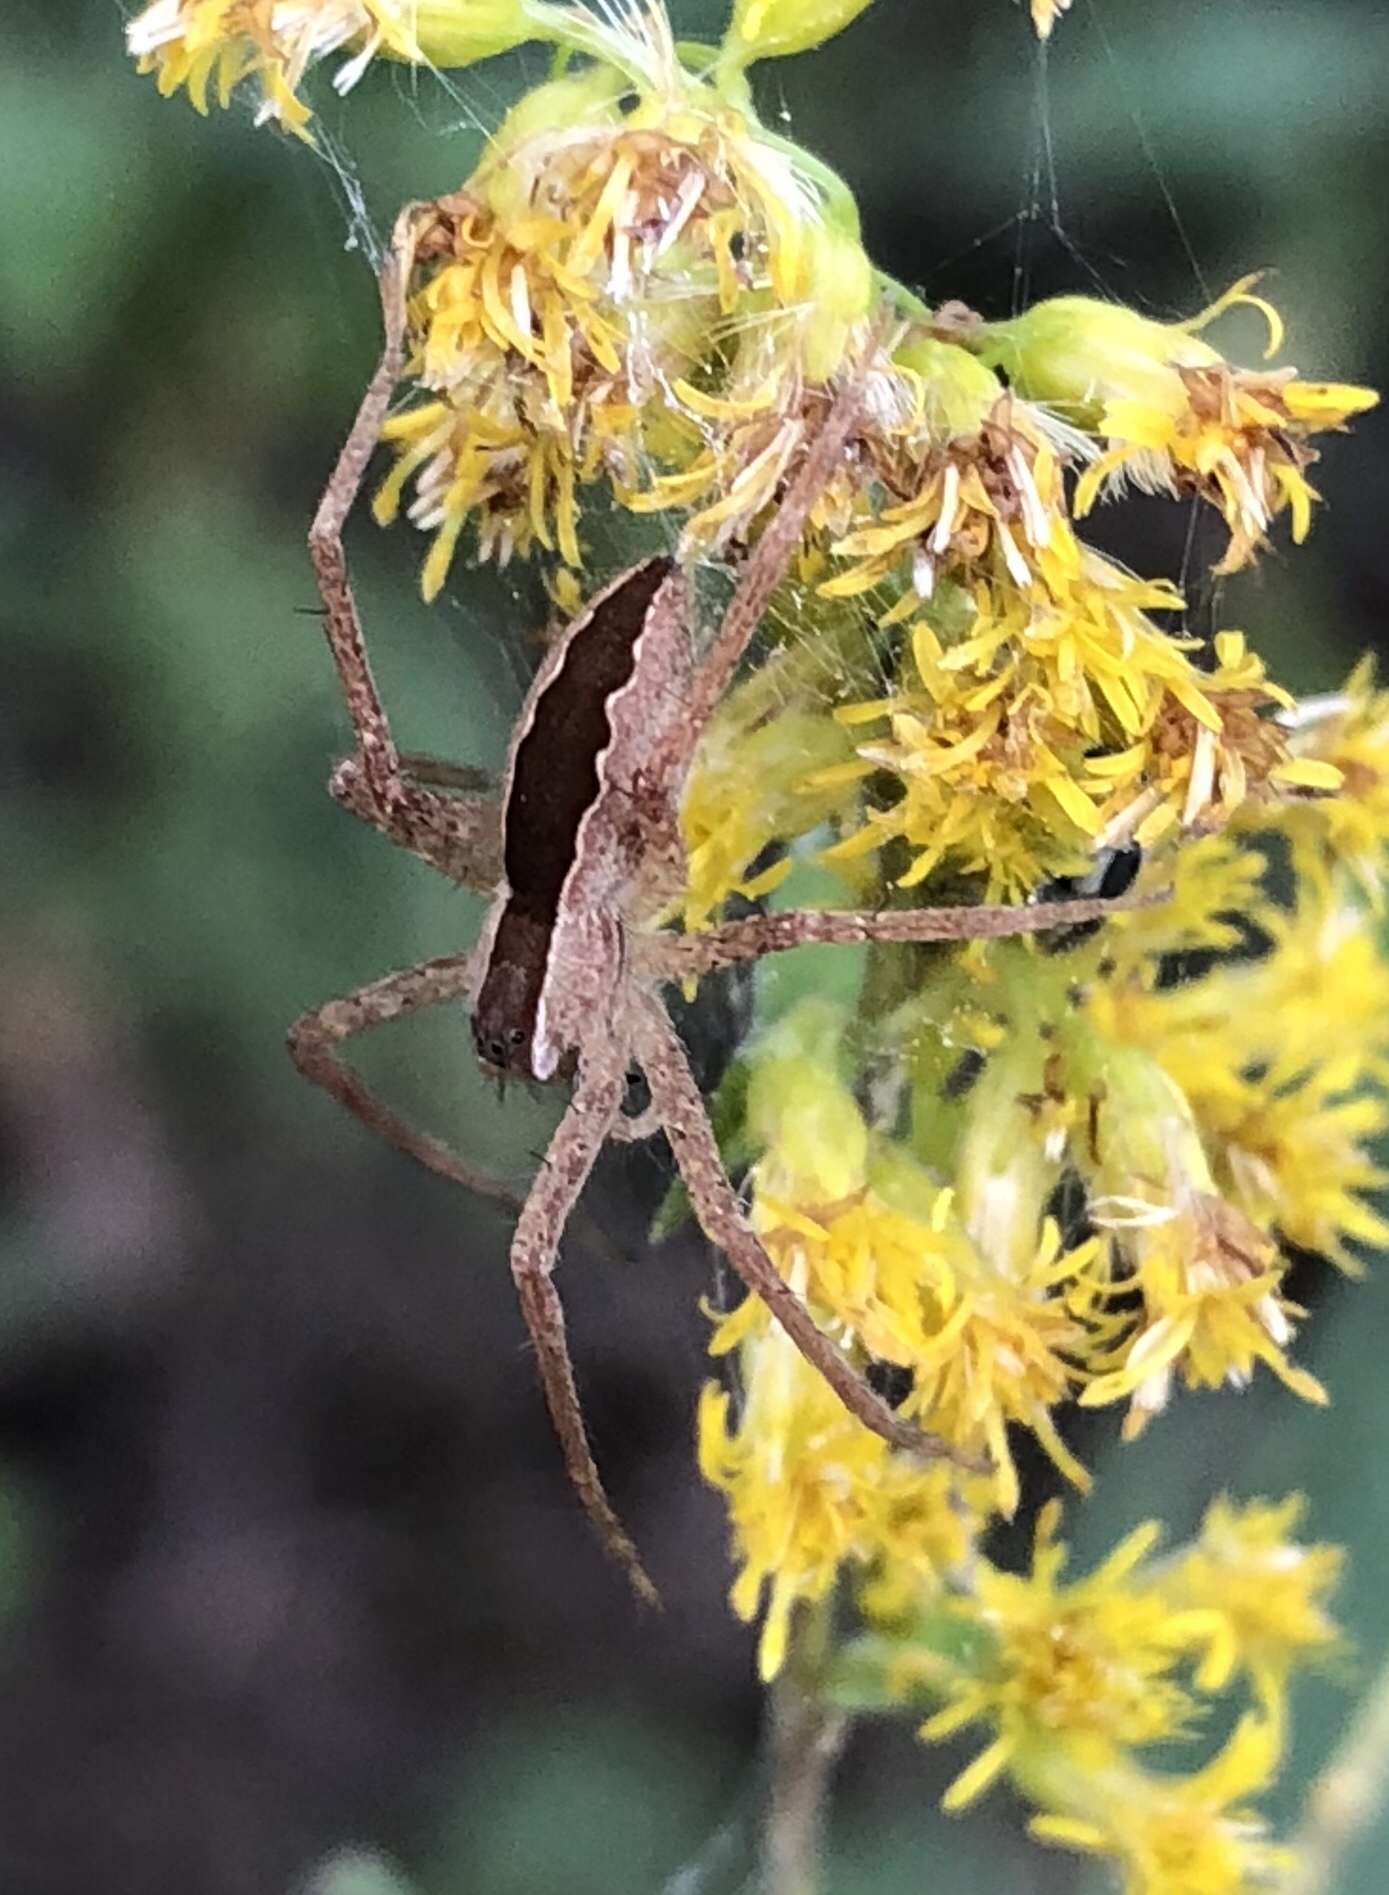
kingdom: Animalia
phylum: Arthropoda
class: Arachnida
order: Araneae
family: Pisauridae
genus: Pisaurina
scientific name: Pisaurina mira
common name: American nursery web spider
